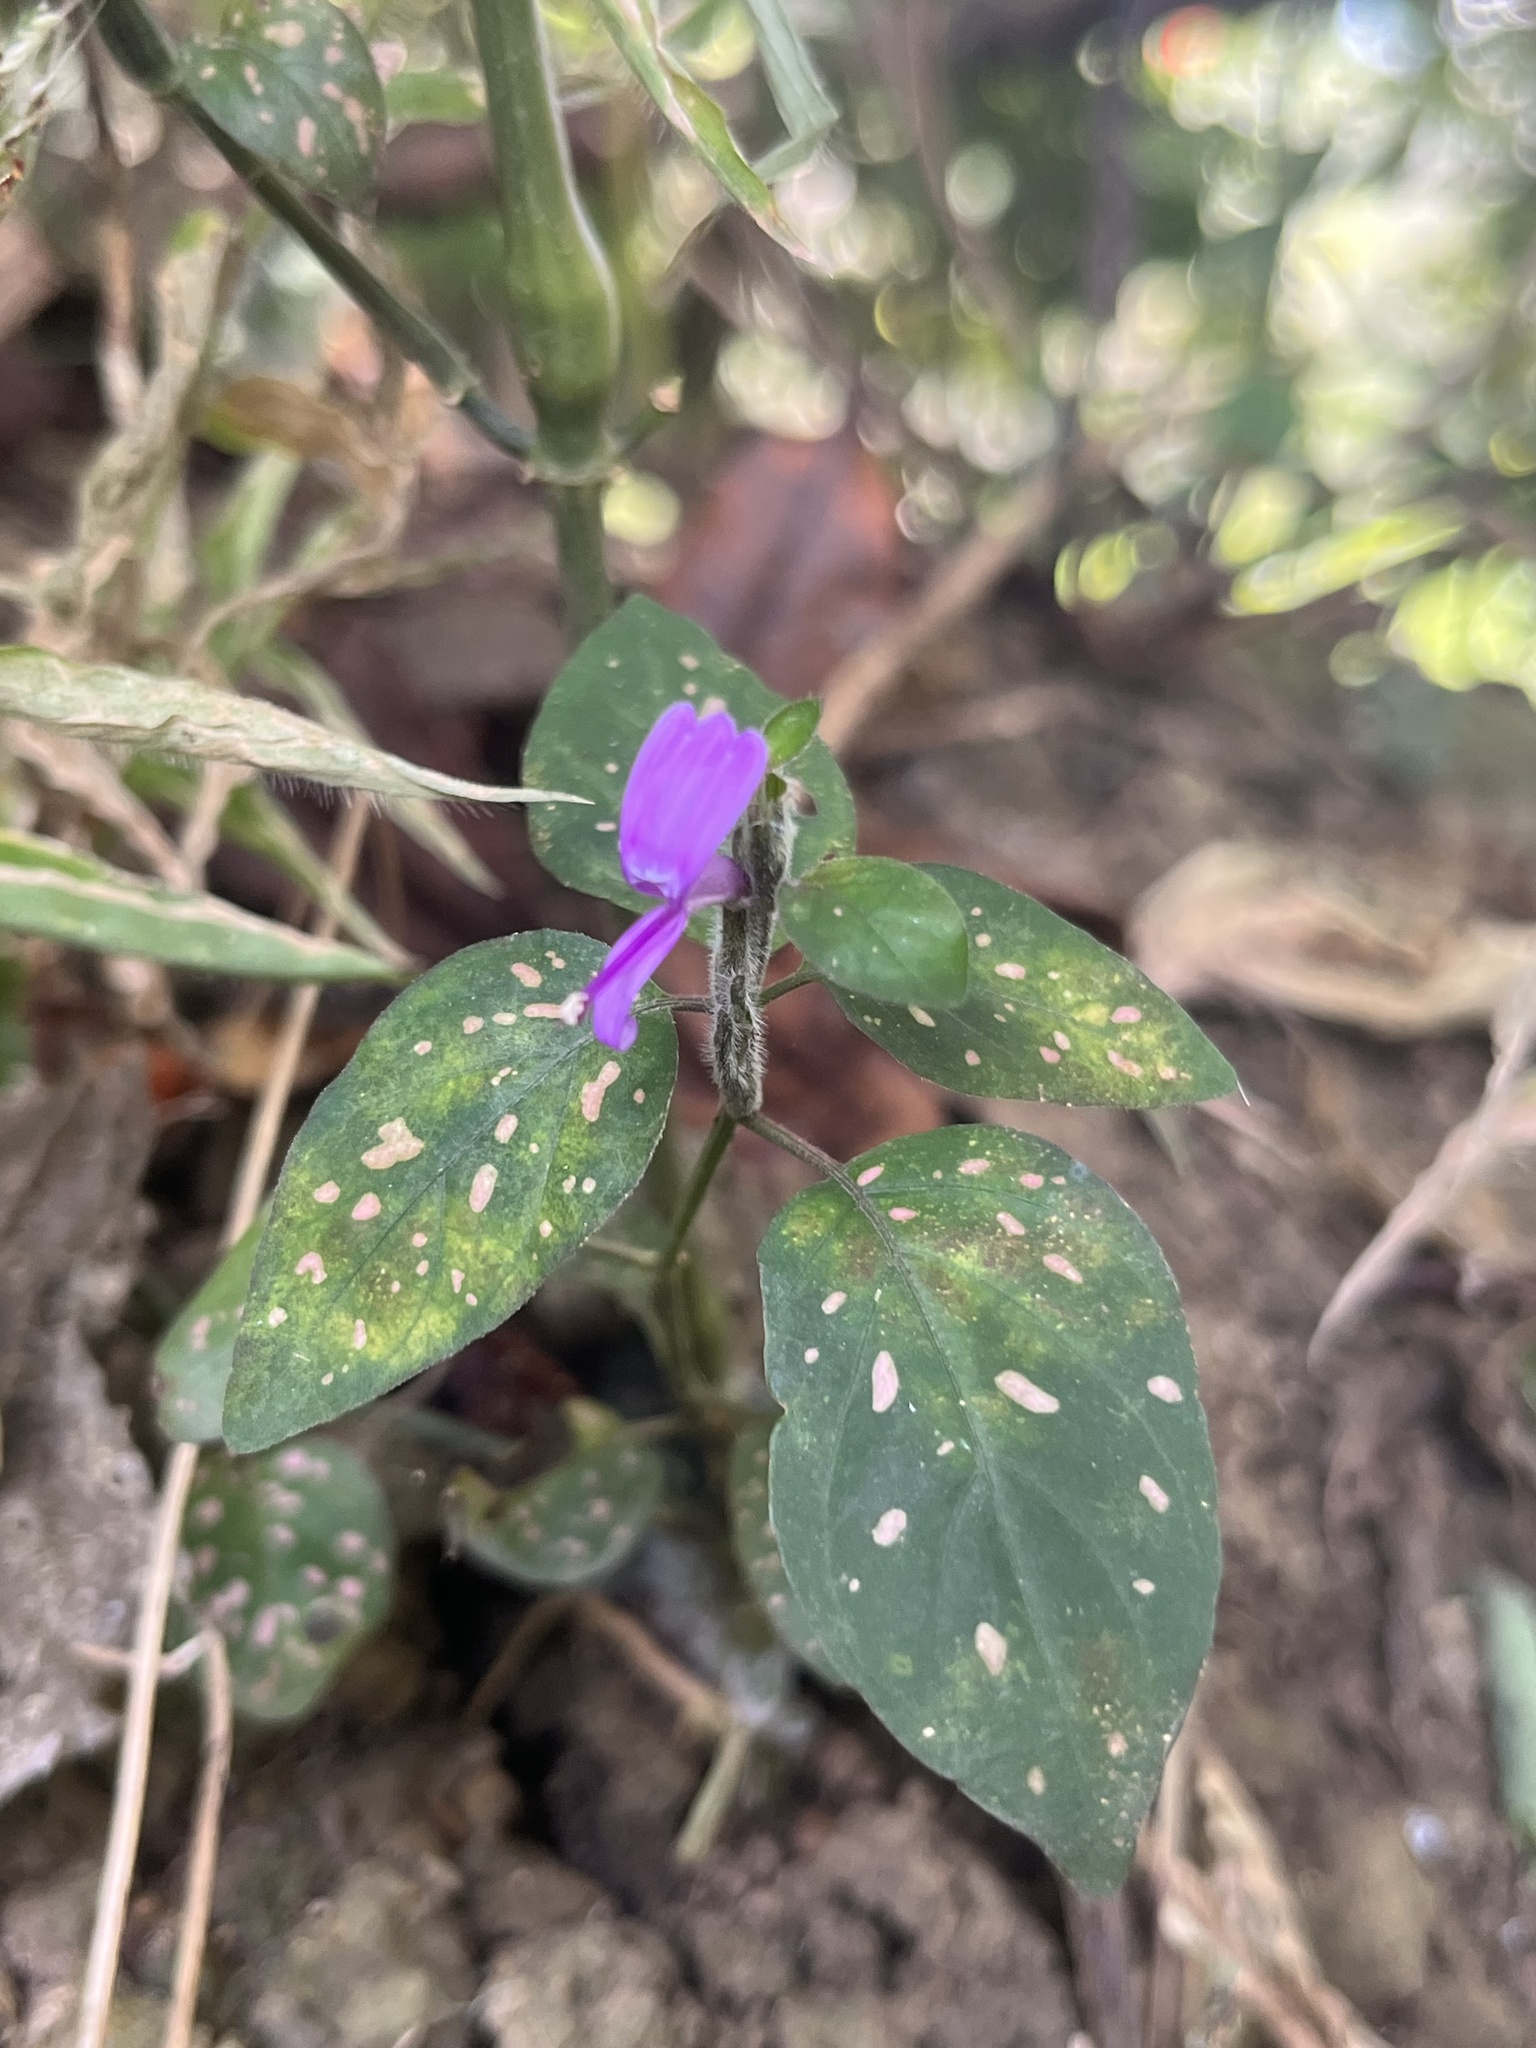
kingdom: Plantae
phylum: Tracheophyta
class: Magnoliopsida
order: Lamiales
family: Acanthaceae
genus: Hypoestes
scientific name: Hypoestes phyllostachya
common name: Polkadot-plant
